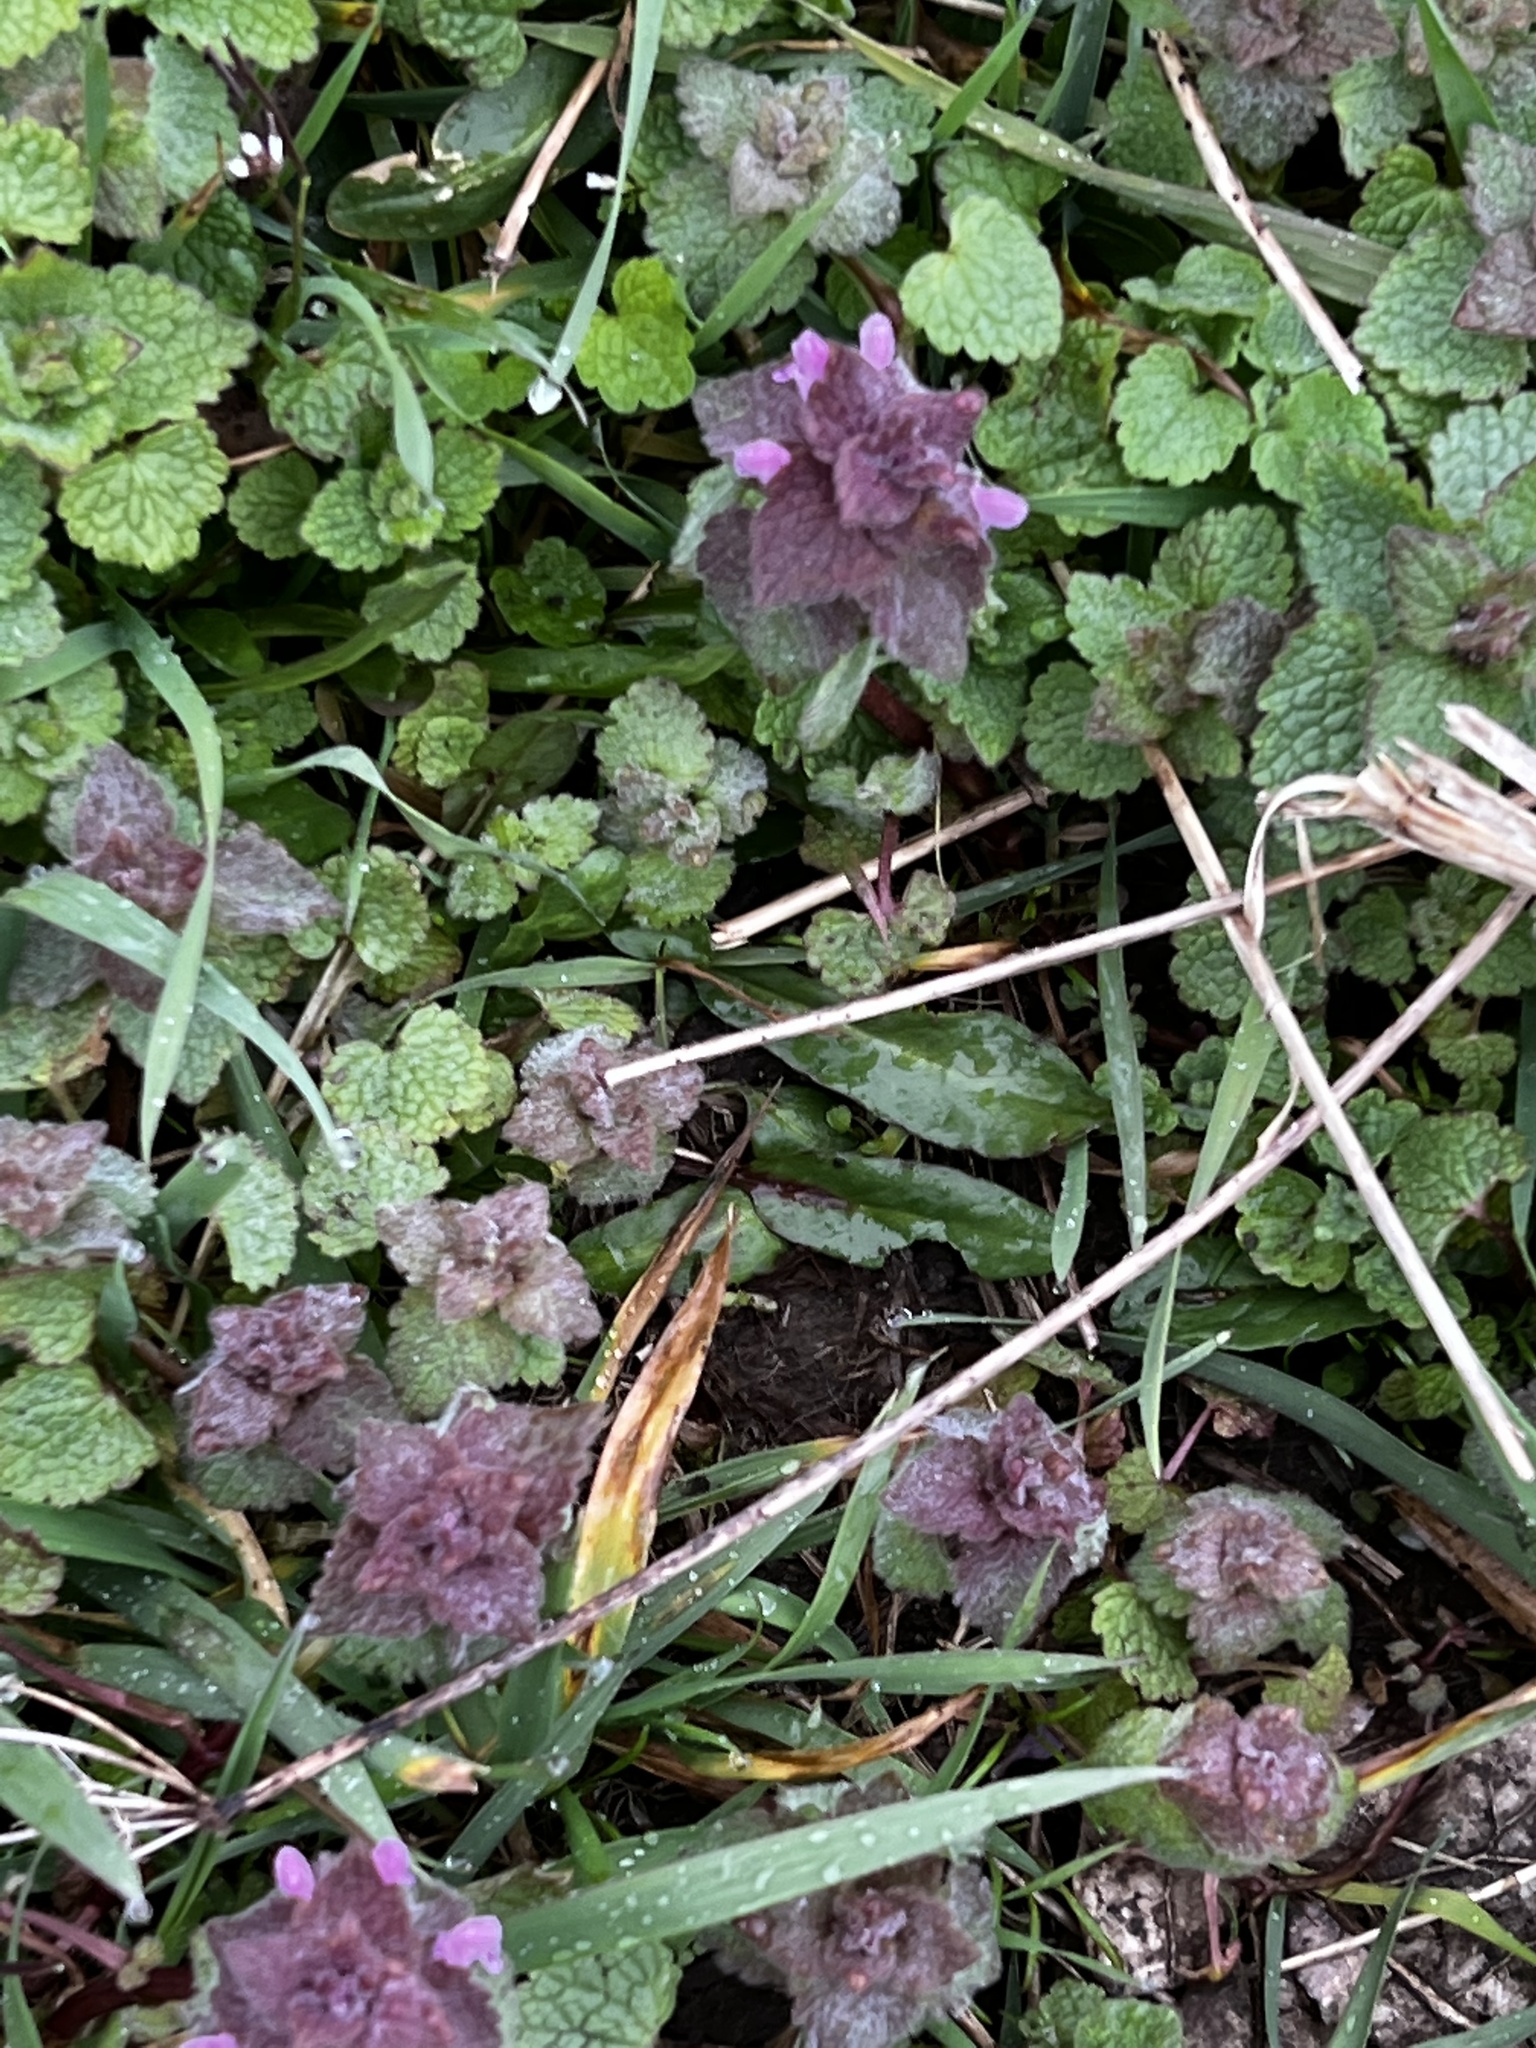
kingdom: Plantae
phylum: Tracheophyta
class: Magnoliopsida
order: Lamiales
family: Lamiaceae
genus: Lamium
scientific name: Lamium purpureum
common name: Red dead-nettle
